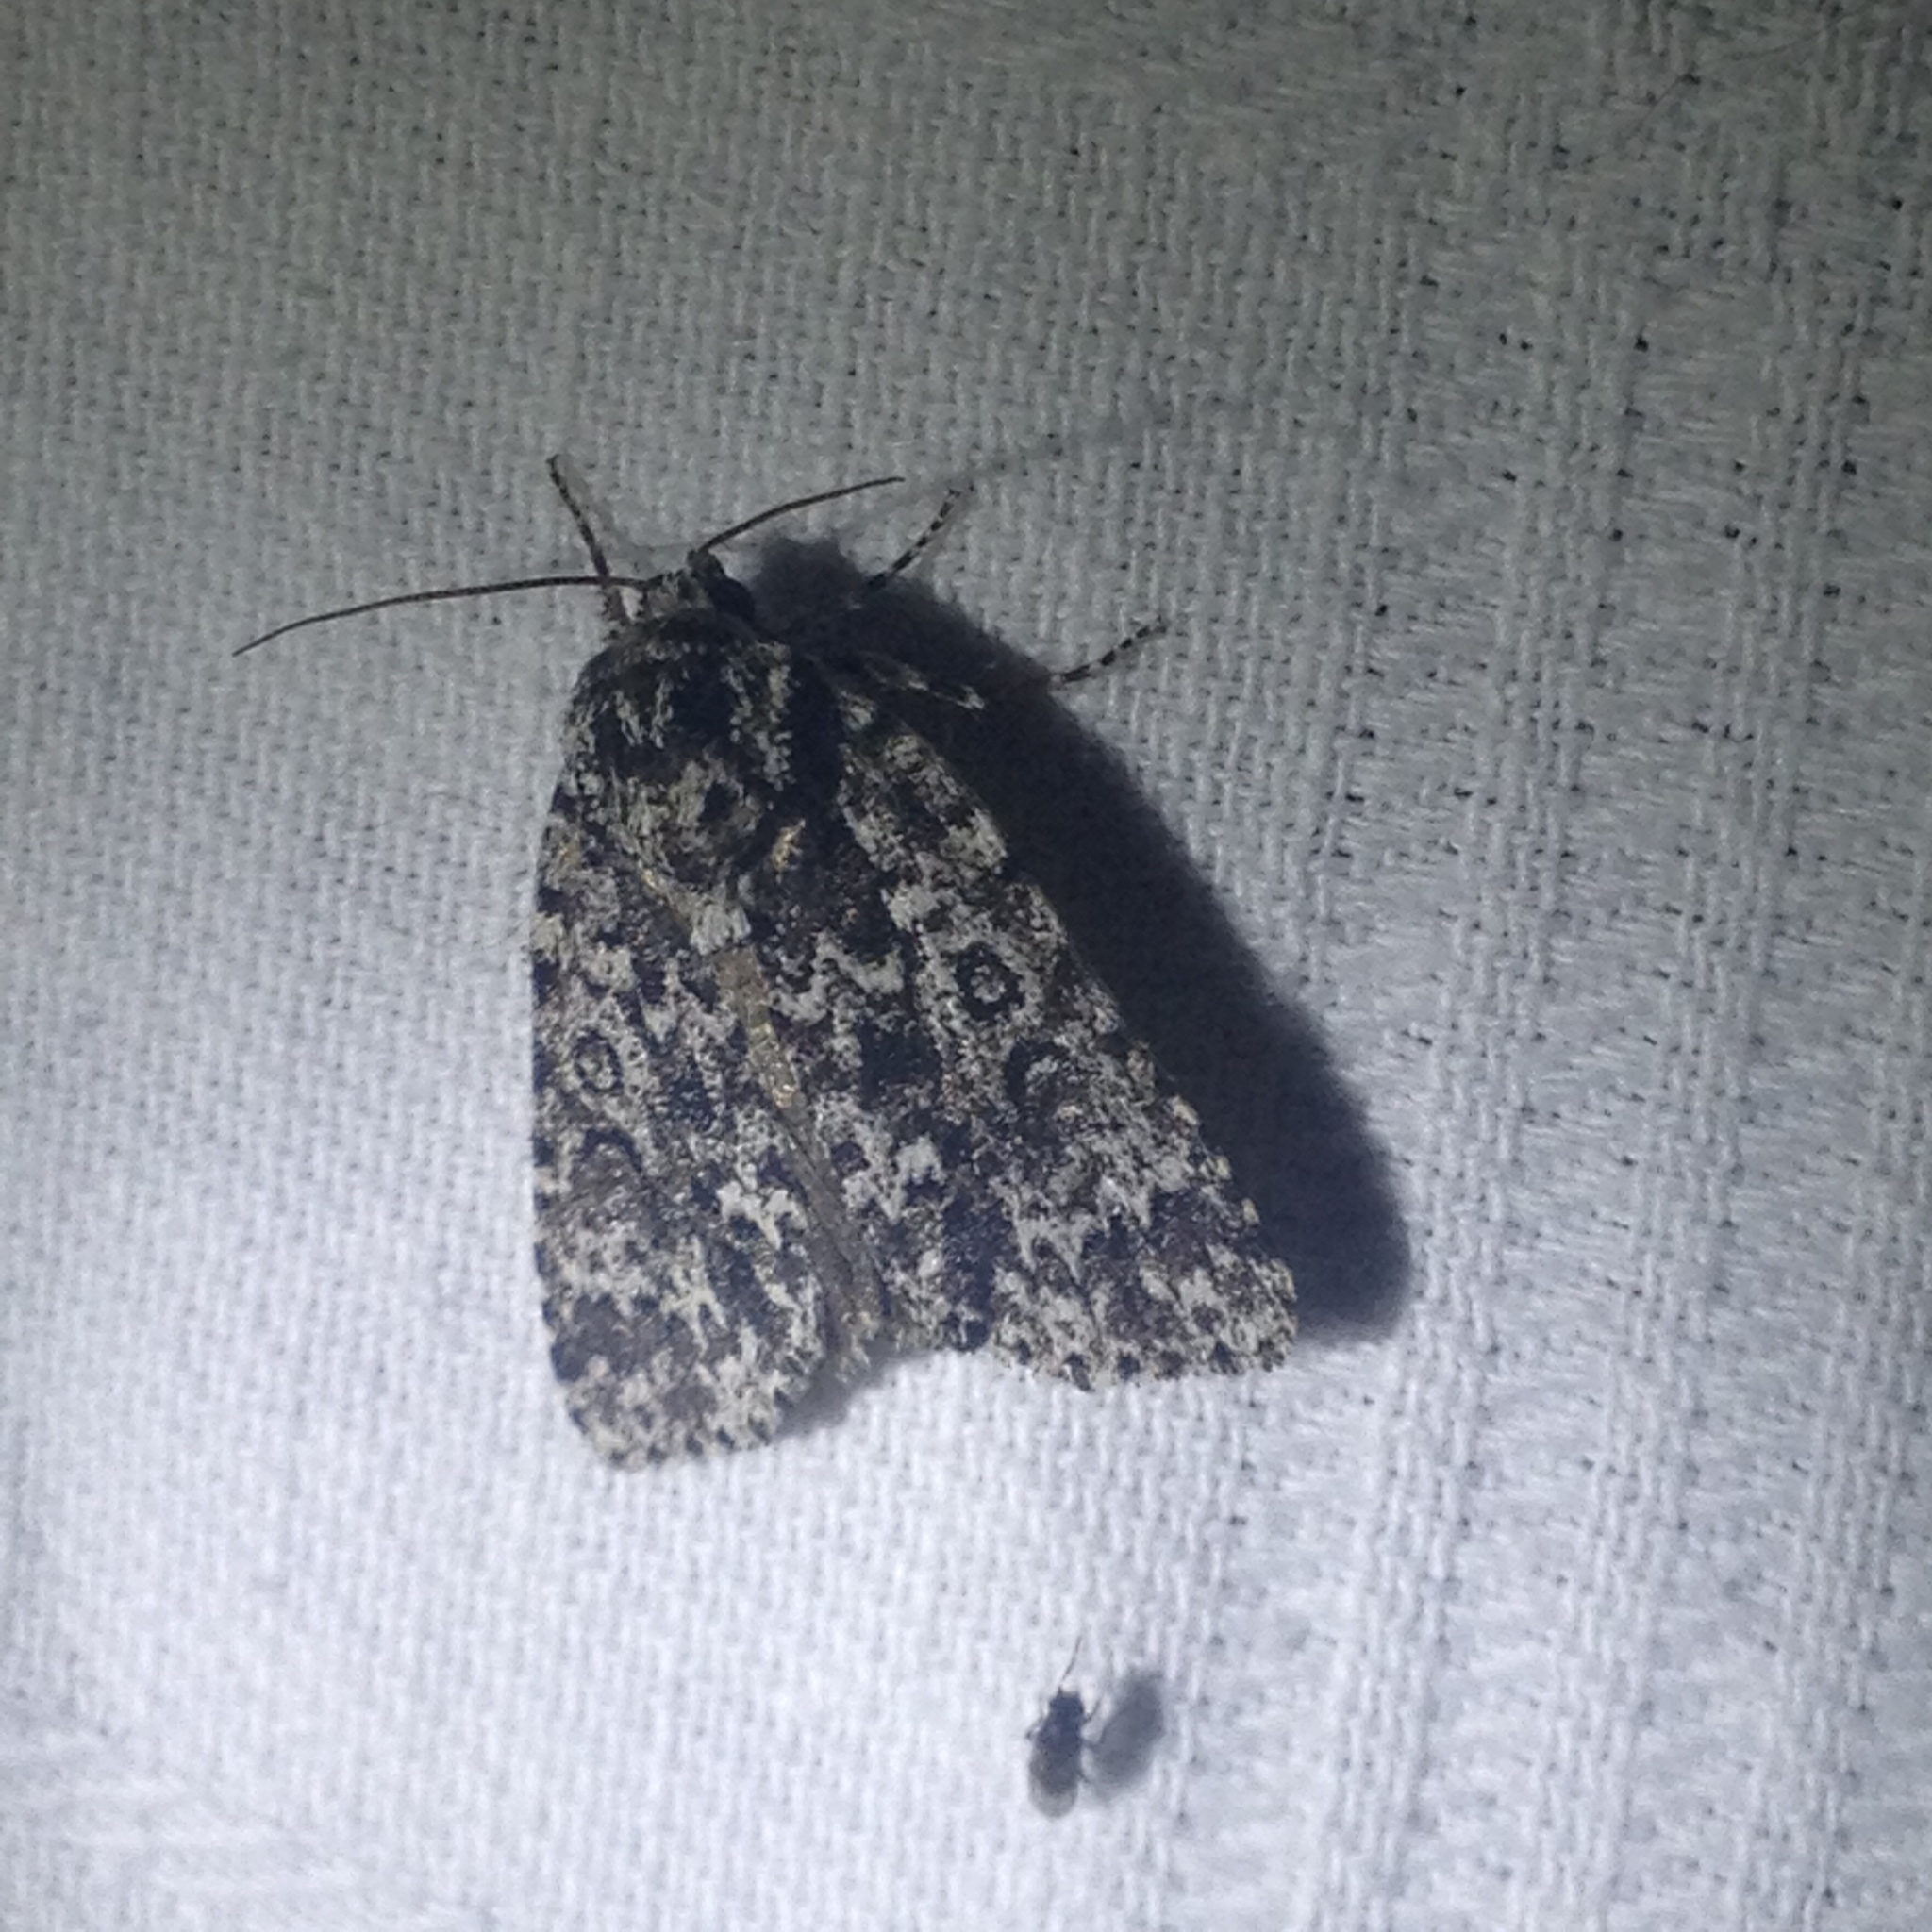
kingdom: Animalia
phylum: Arthropoda
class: Insecta
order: Lepidoptera
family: Noctuidae
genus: Acronicta
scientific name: Acronicta noctivaga
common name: Night-wandering dagger
